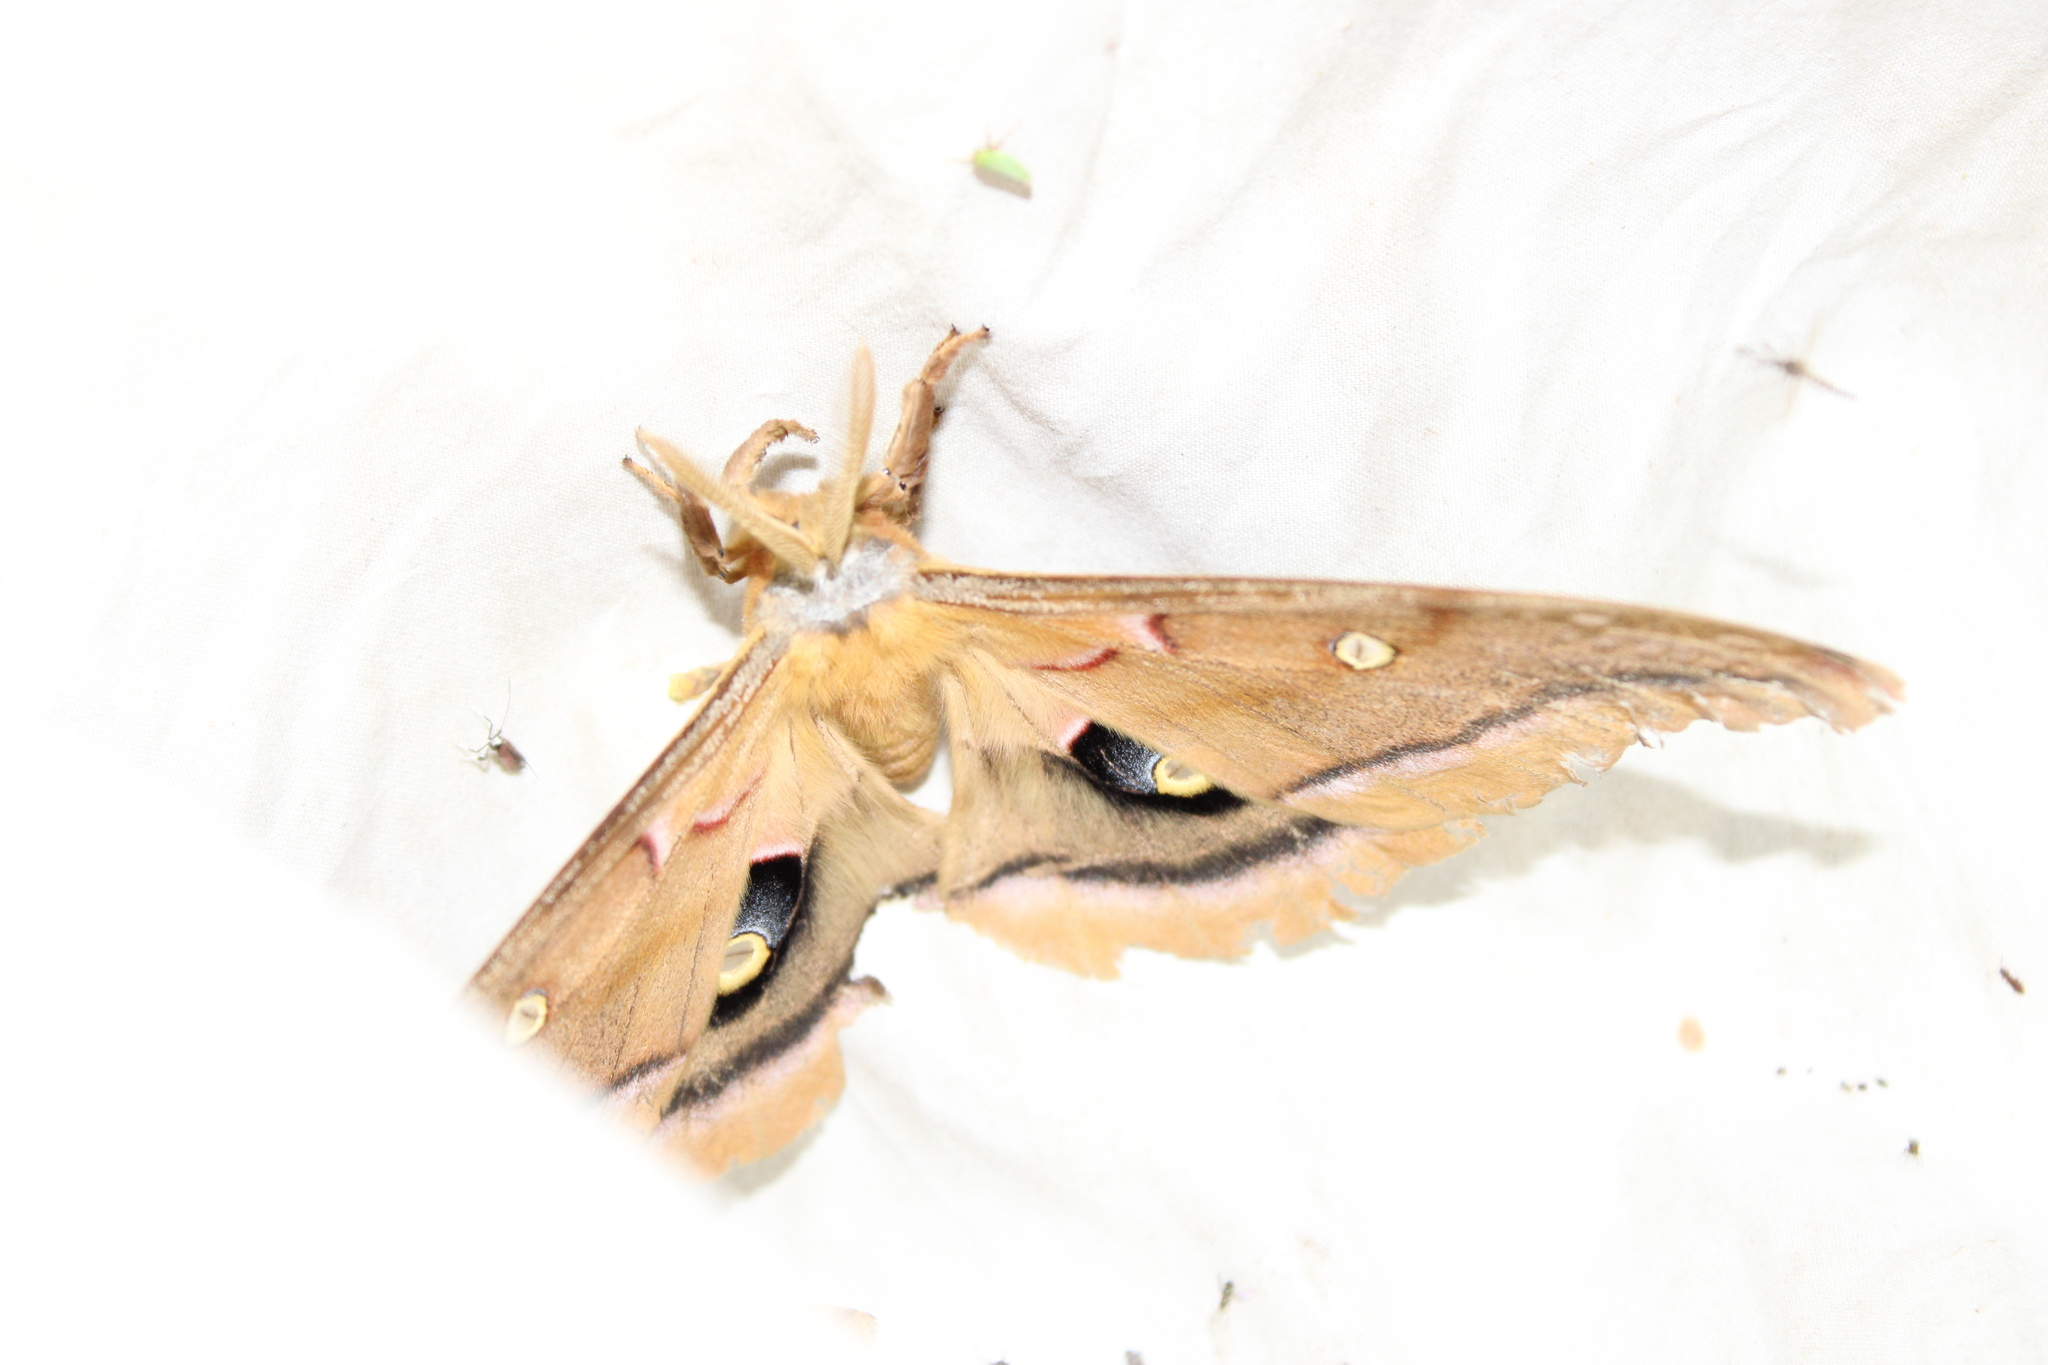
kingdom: Animalia
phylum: Arthropoda
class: Insecta
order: Lepidoptera
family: Saturniidae
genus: Antheraea
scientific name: Antheraea polyphemus
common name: Polyphemus moth
